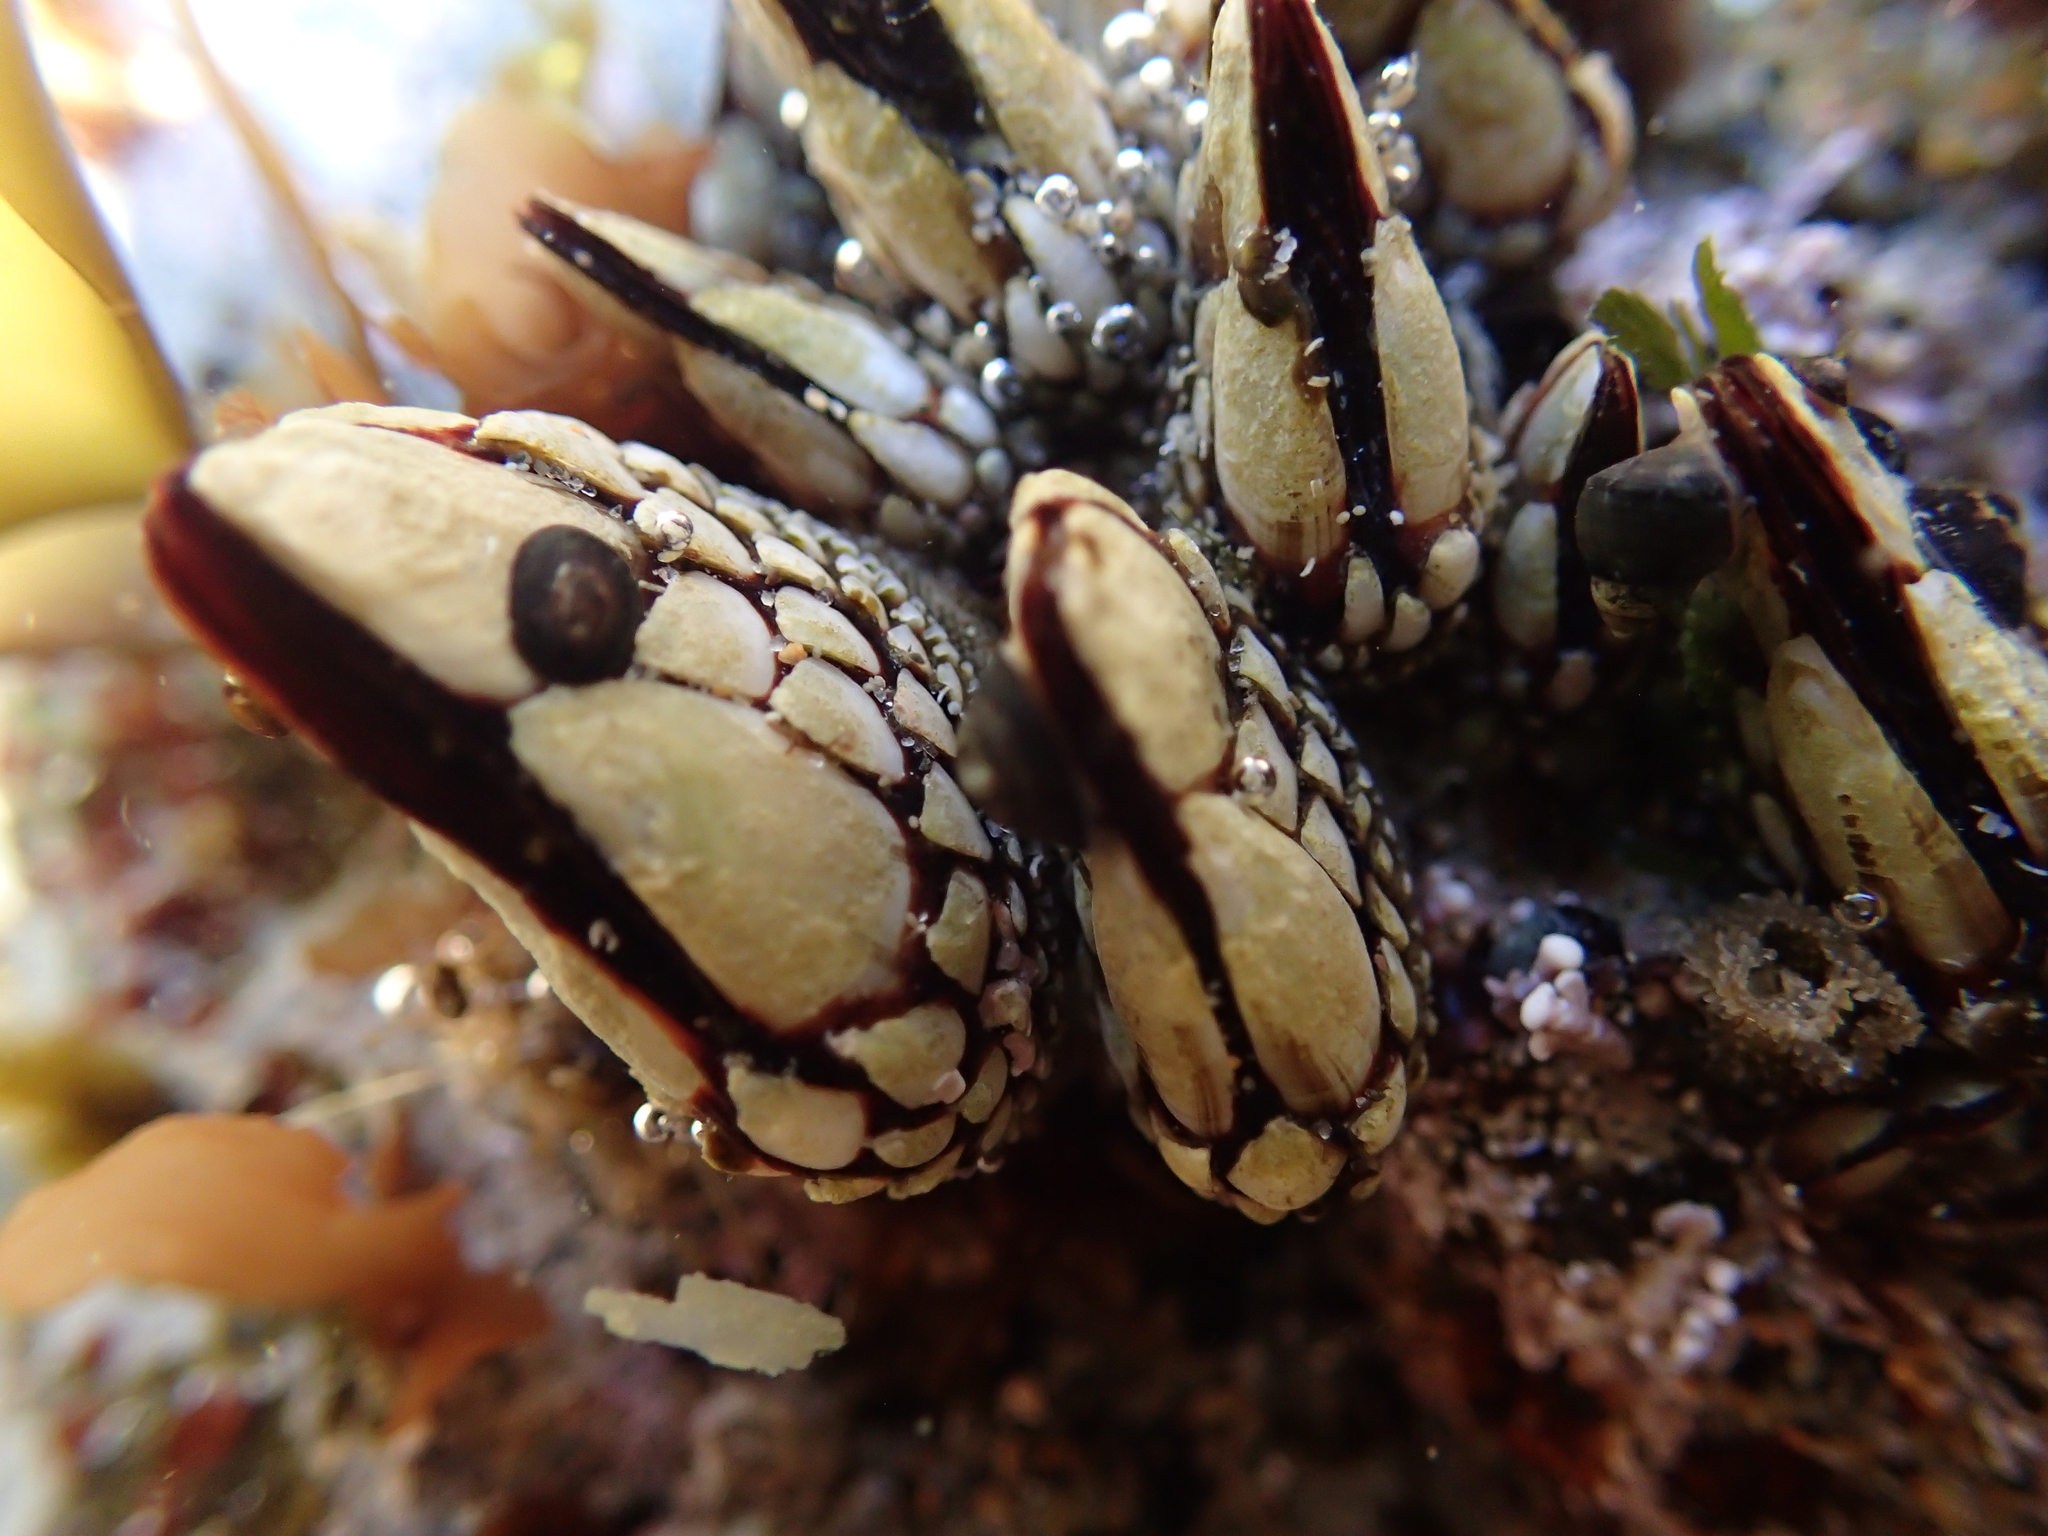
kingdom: Animalia
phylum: Arthropoda
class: Maxillopoda
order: Pedunculata
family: Pollicipedidae
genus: Pollicipes
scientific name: Pollicipes polymerus
